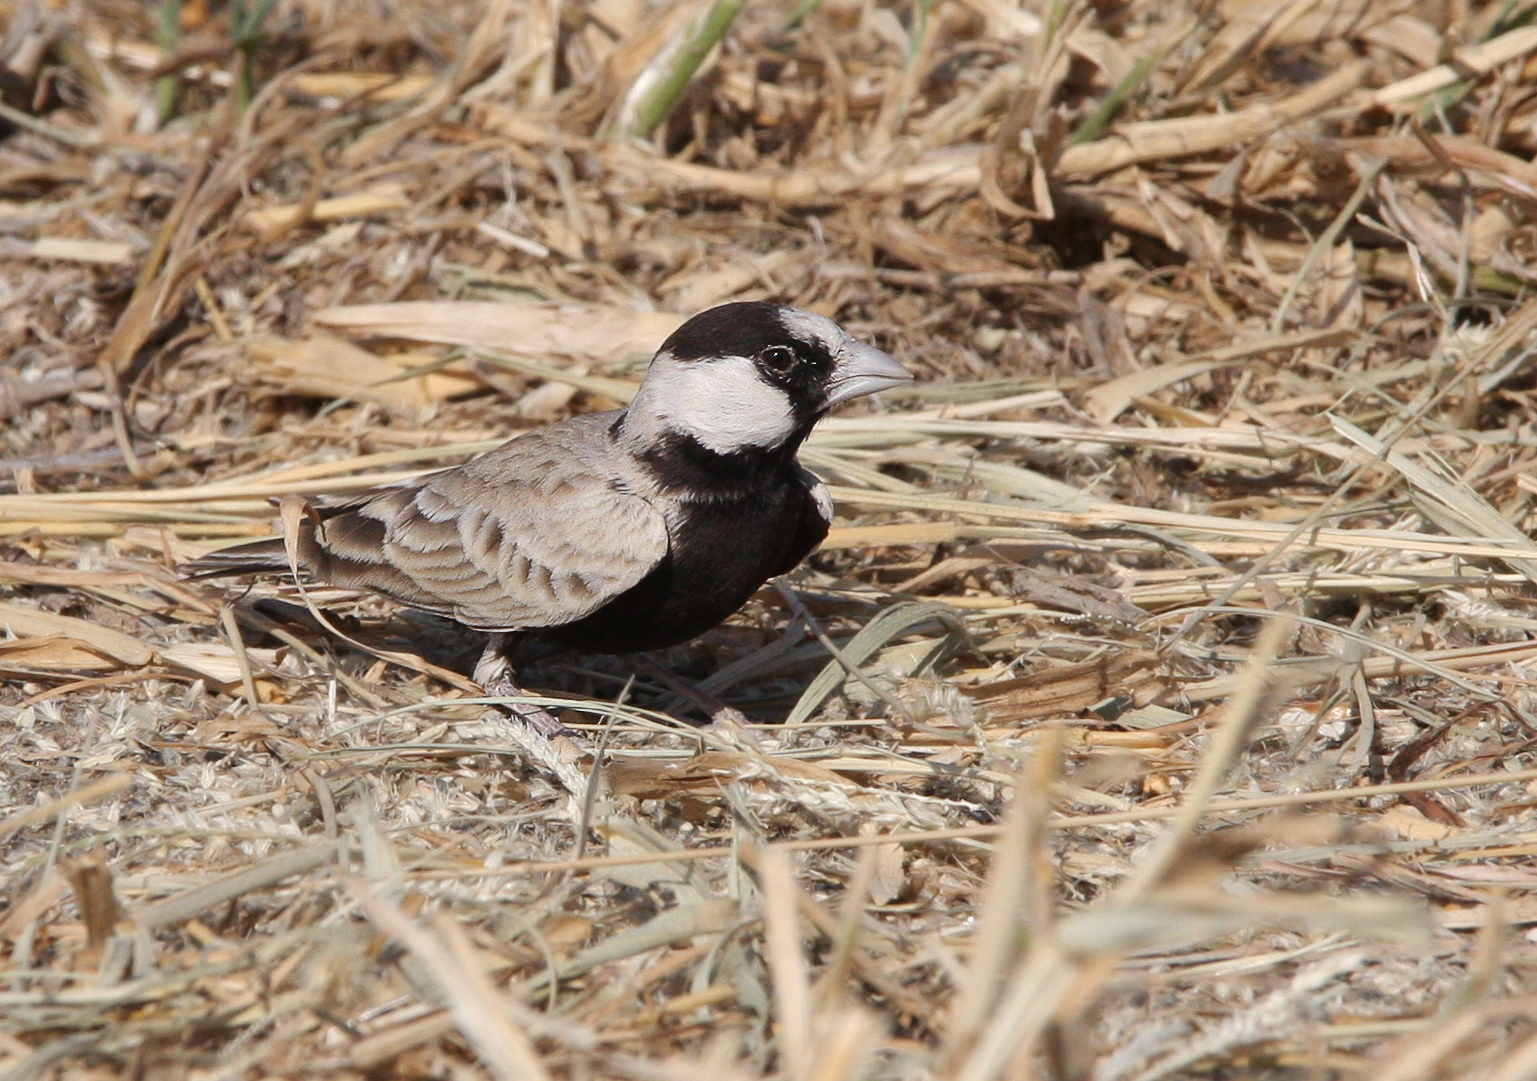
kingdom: Animalia
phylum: Chordata
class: Aves
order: Passeriformes
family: Alaudidae
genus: Eremopterix
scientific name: Eremopterix nigriceps
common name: Black-crowned sparrow-lark
